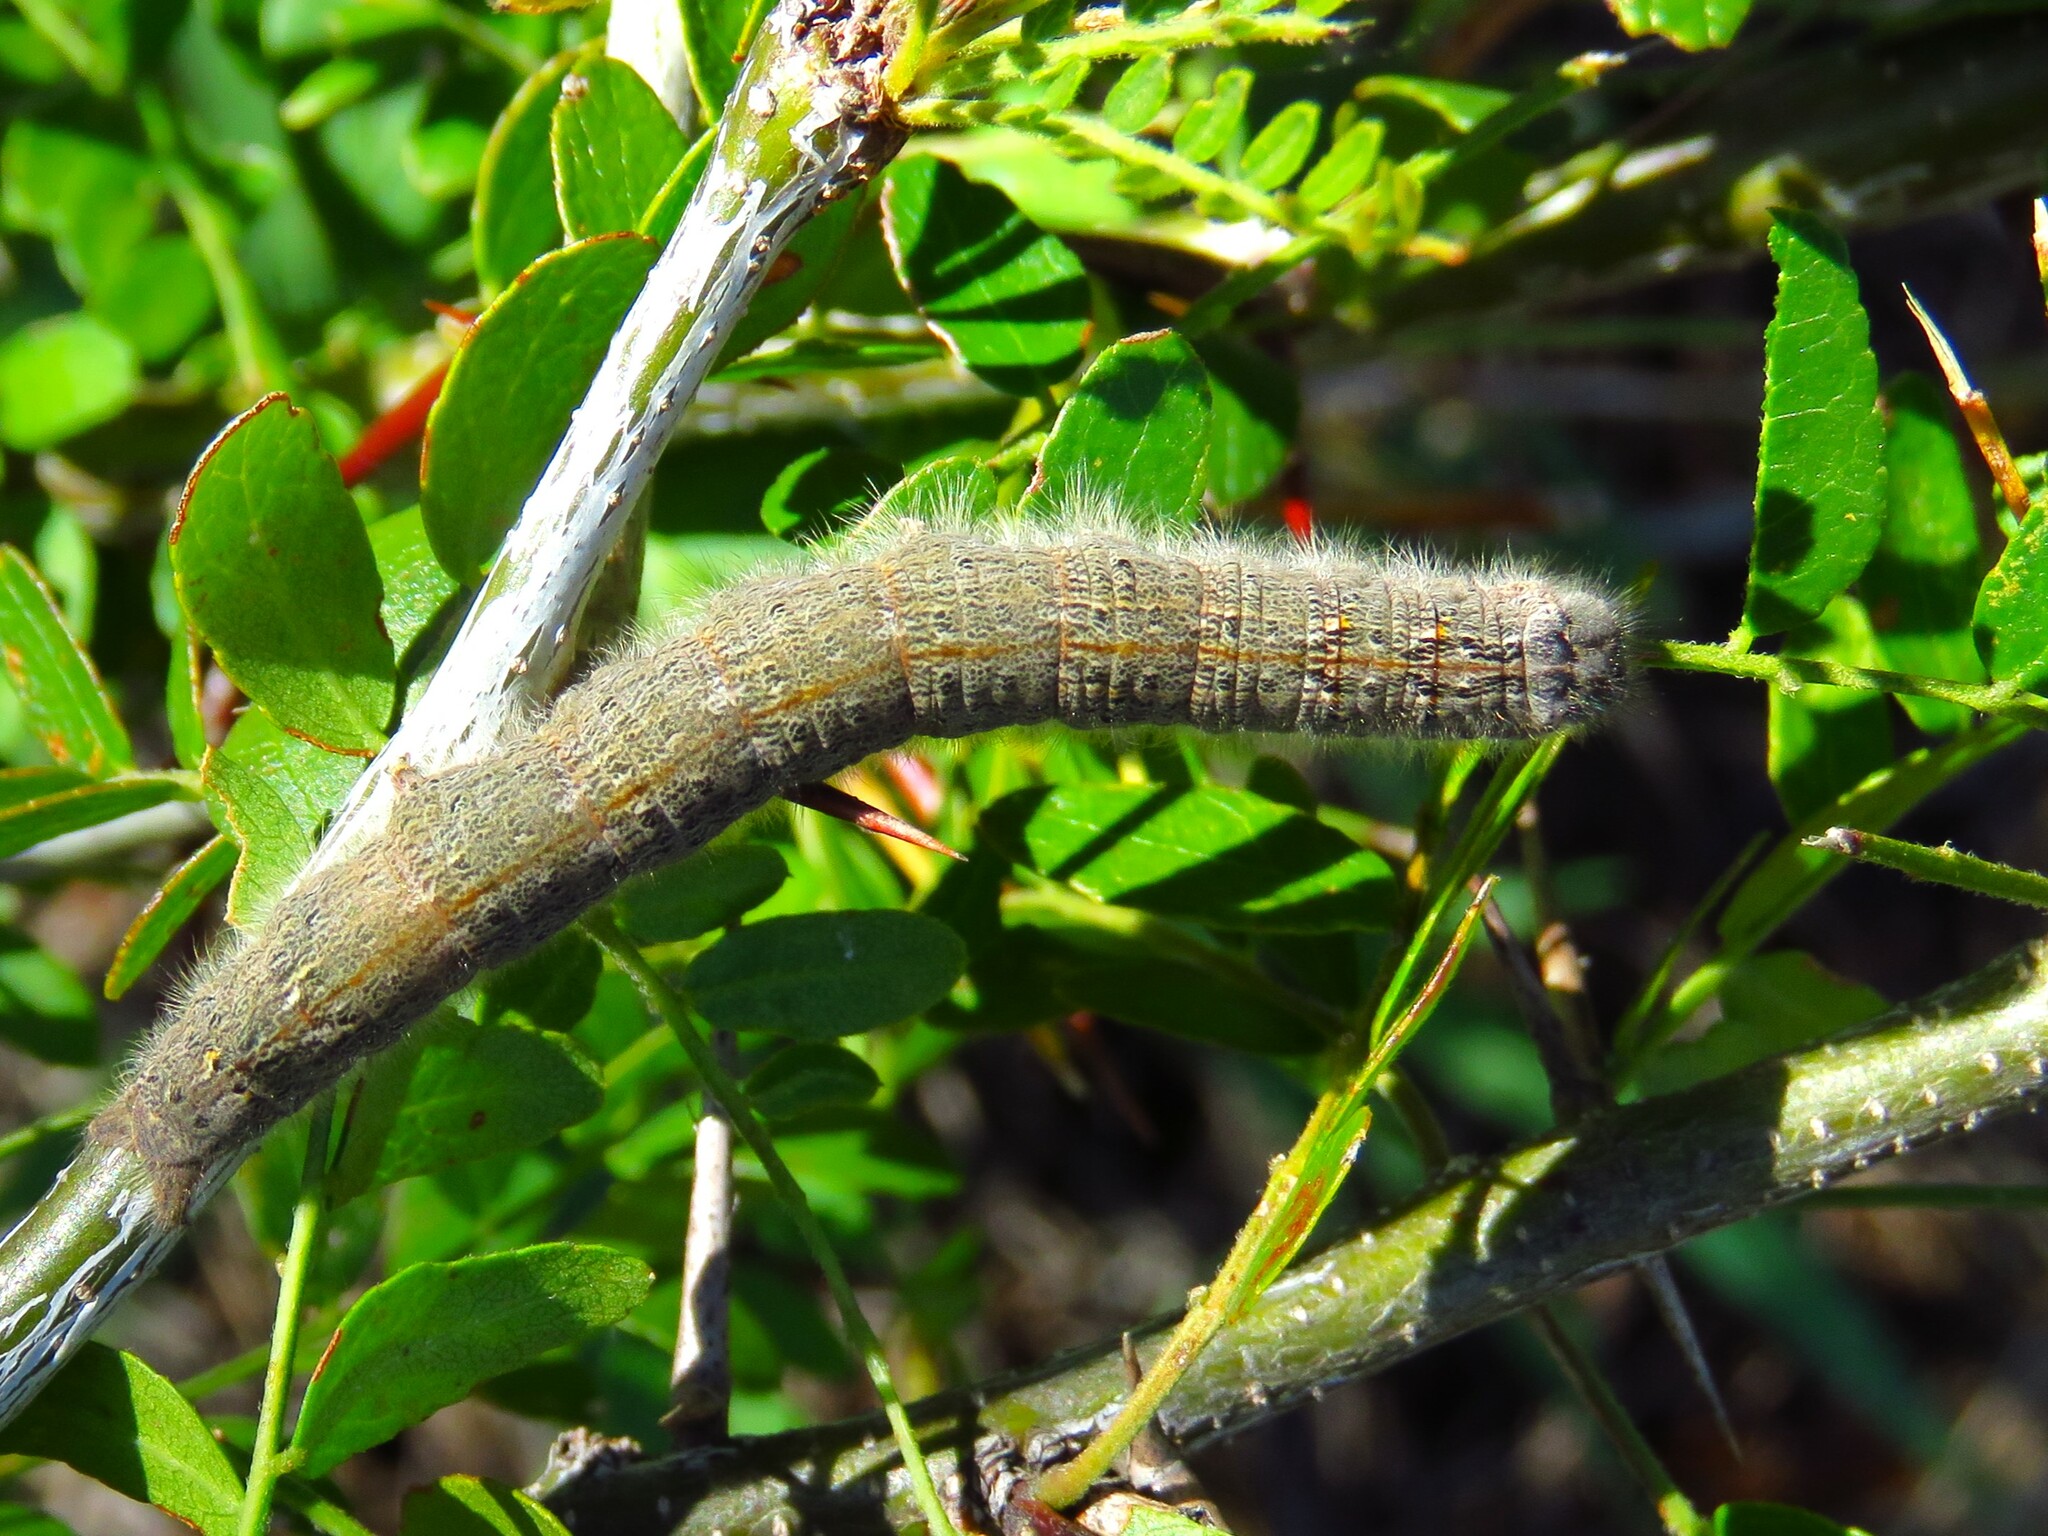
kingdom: Animalia
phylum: Arthropoda
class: Insecta
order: Lepidoptera
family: Lasiocampidae
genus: Heteropacha
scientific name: Heteropacha rileyana
